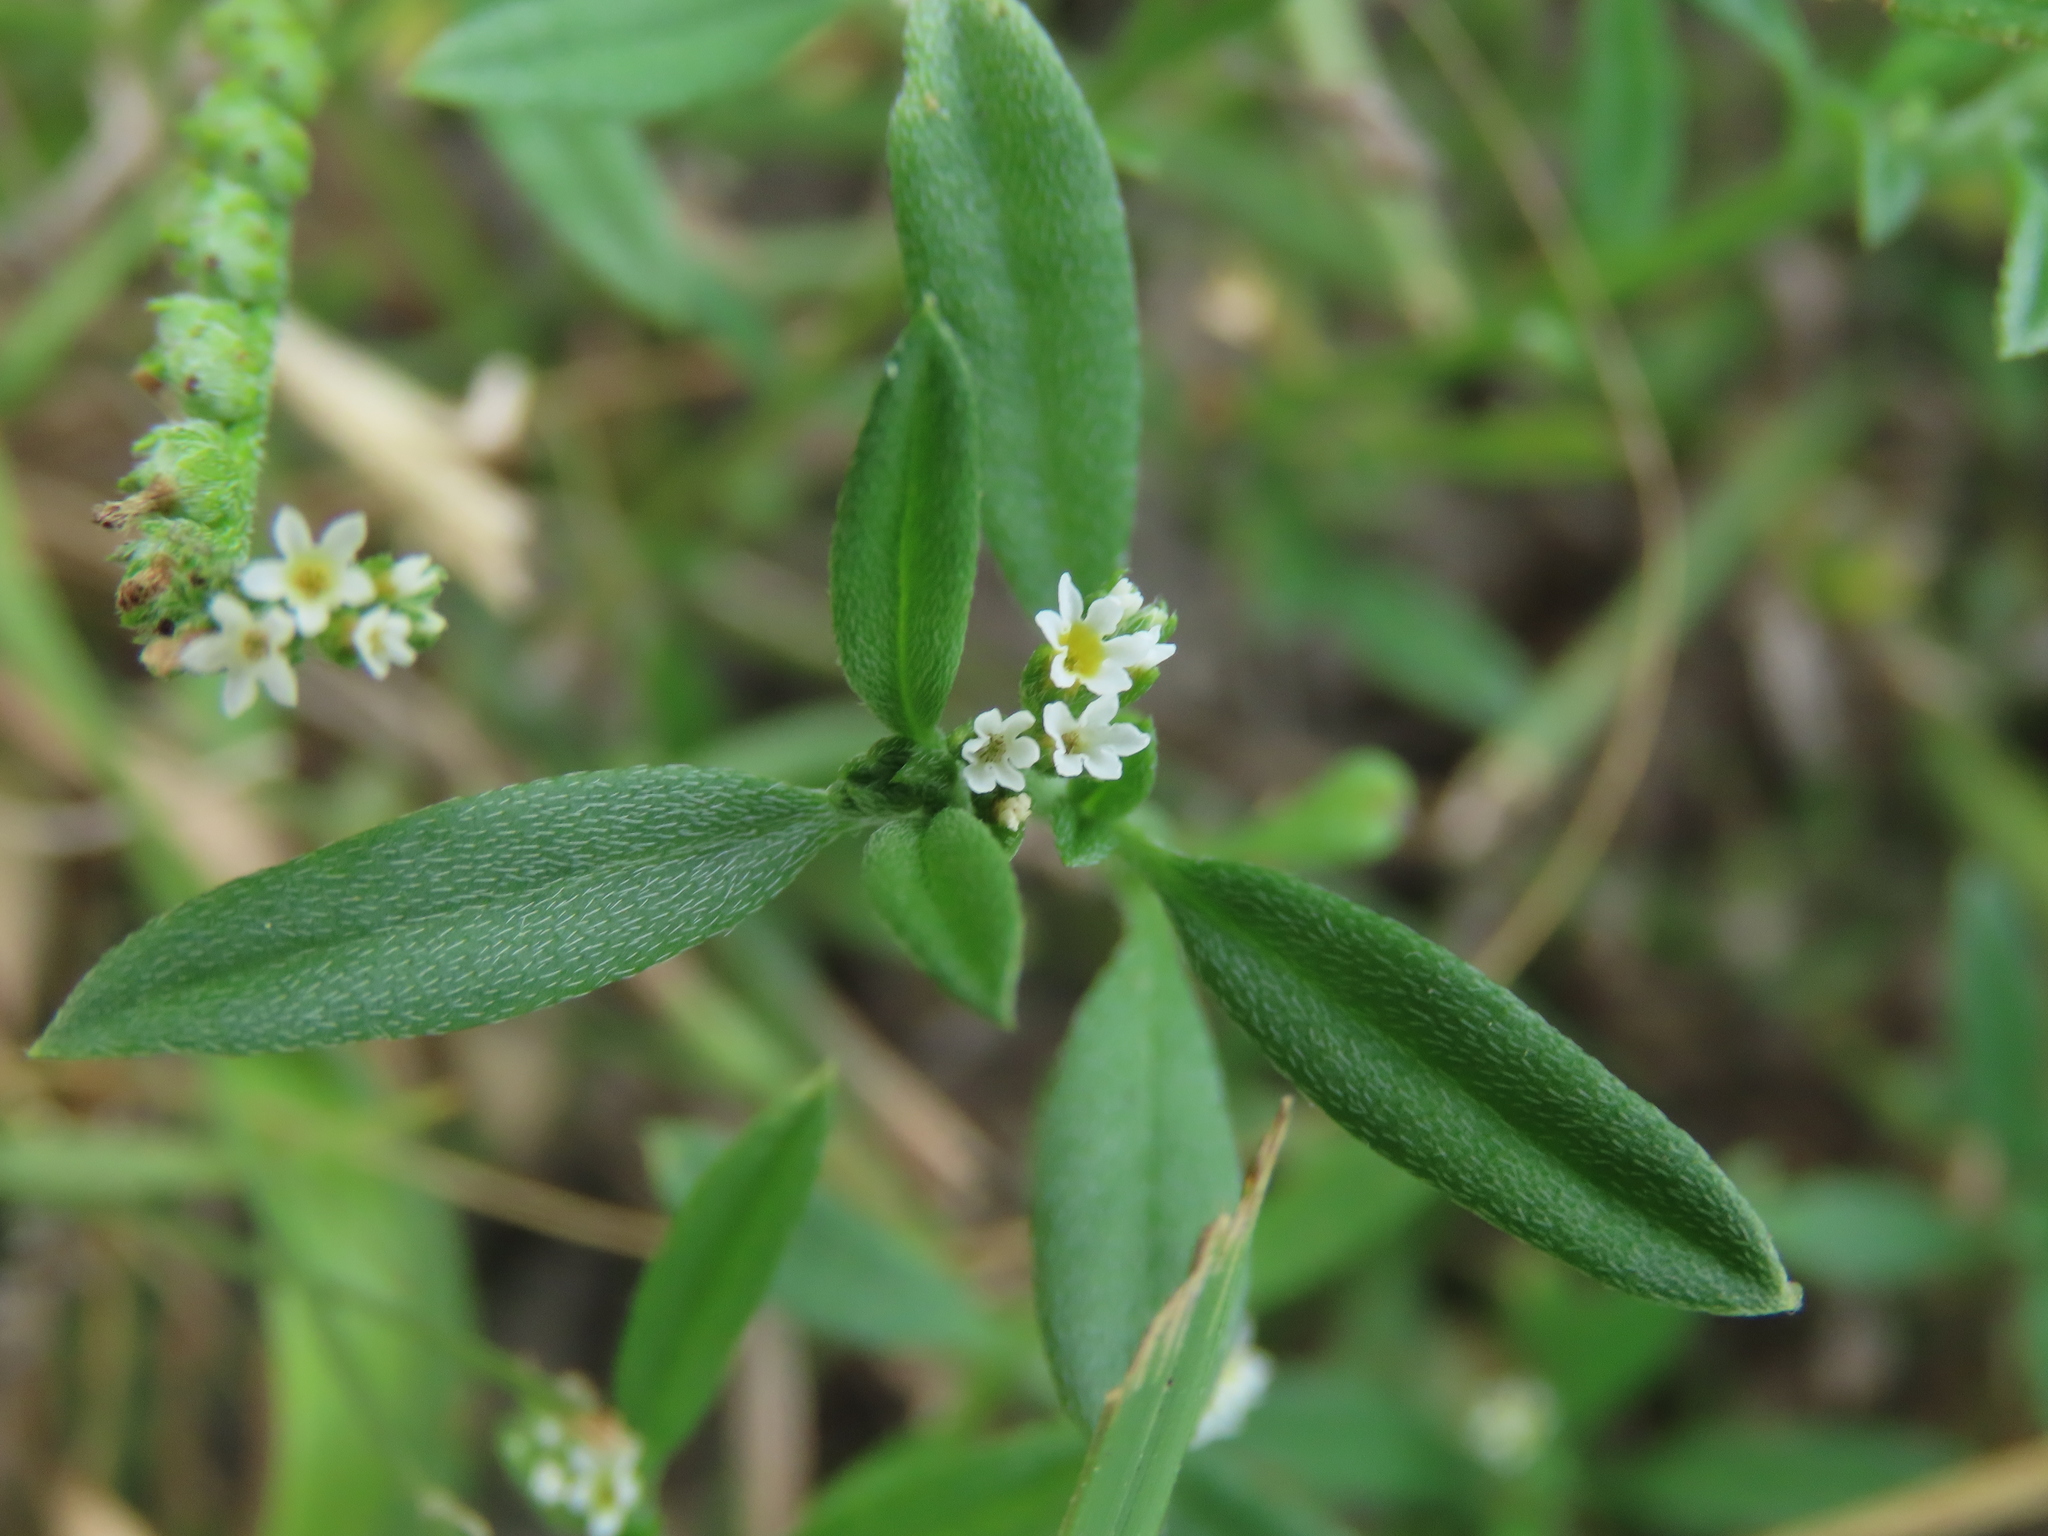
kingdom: Plantae
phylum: Tracheophyta
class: Magnoliopsida
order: Boraginales
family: Heliotropiaceae
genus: Euploca
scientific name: Euploca procumbens
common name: Fourspike heliotrope
